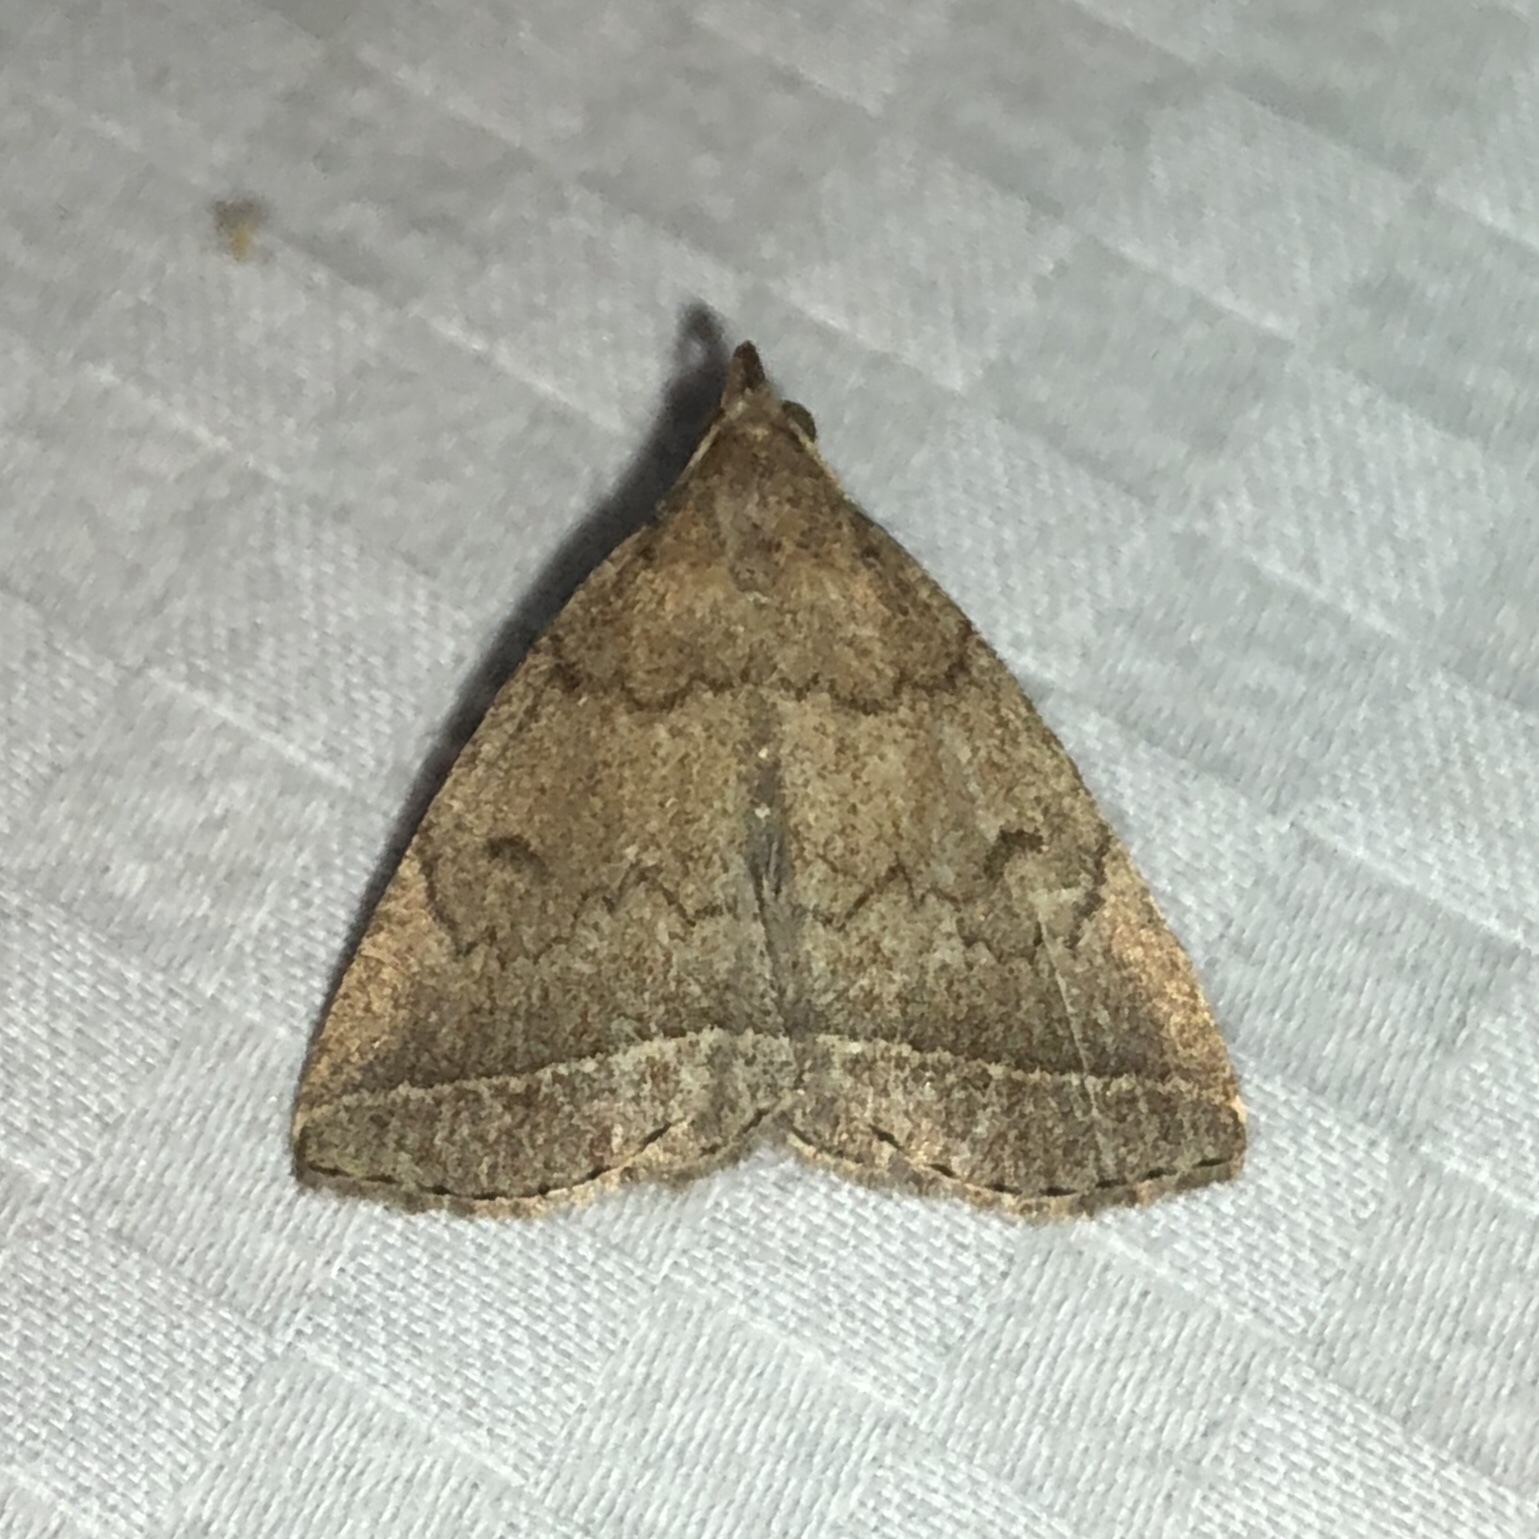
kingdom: Animalia
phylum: Arthropoda
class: Insecta
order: Lepidoptera
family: Erebidae
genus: Zanclognatha
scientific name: Zanclognatha jacchusalis
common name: Yellowish zanclognatha
